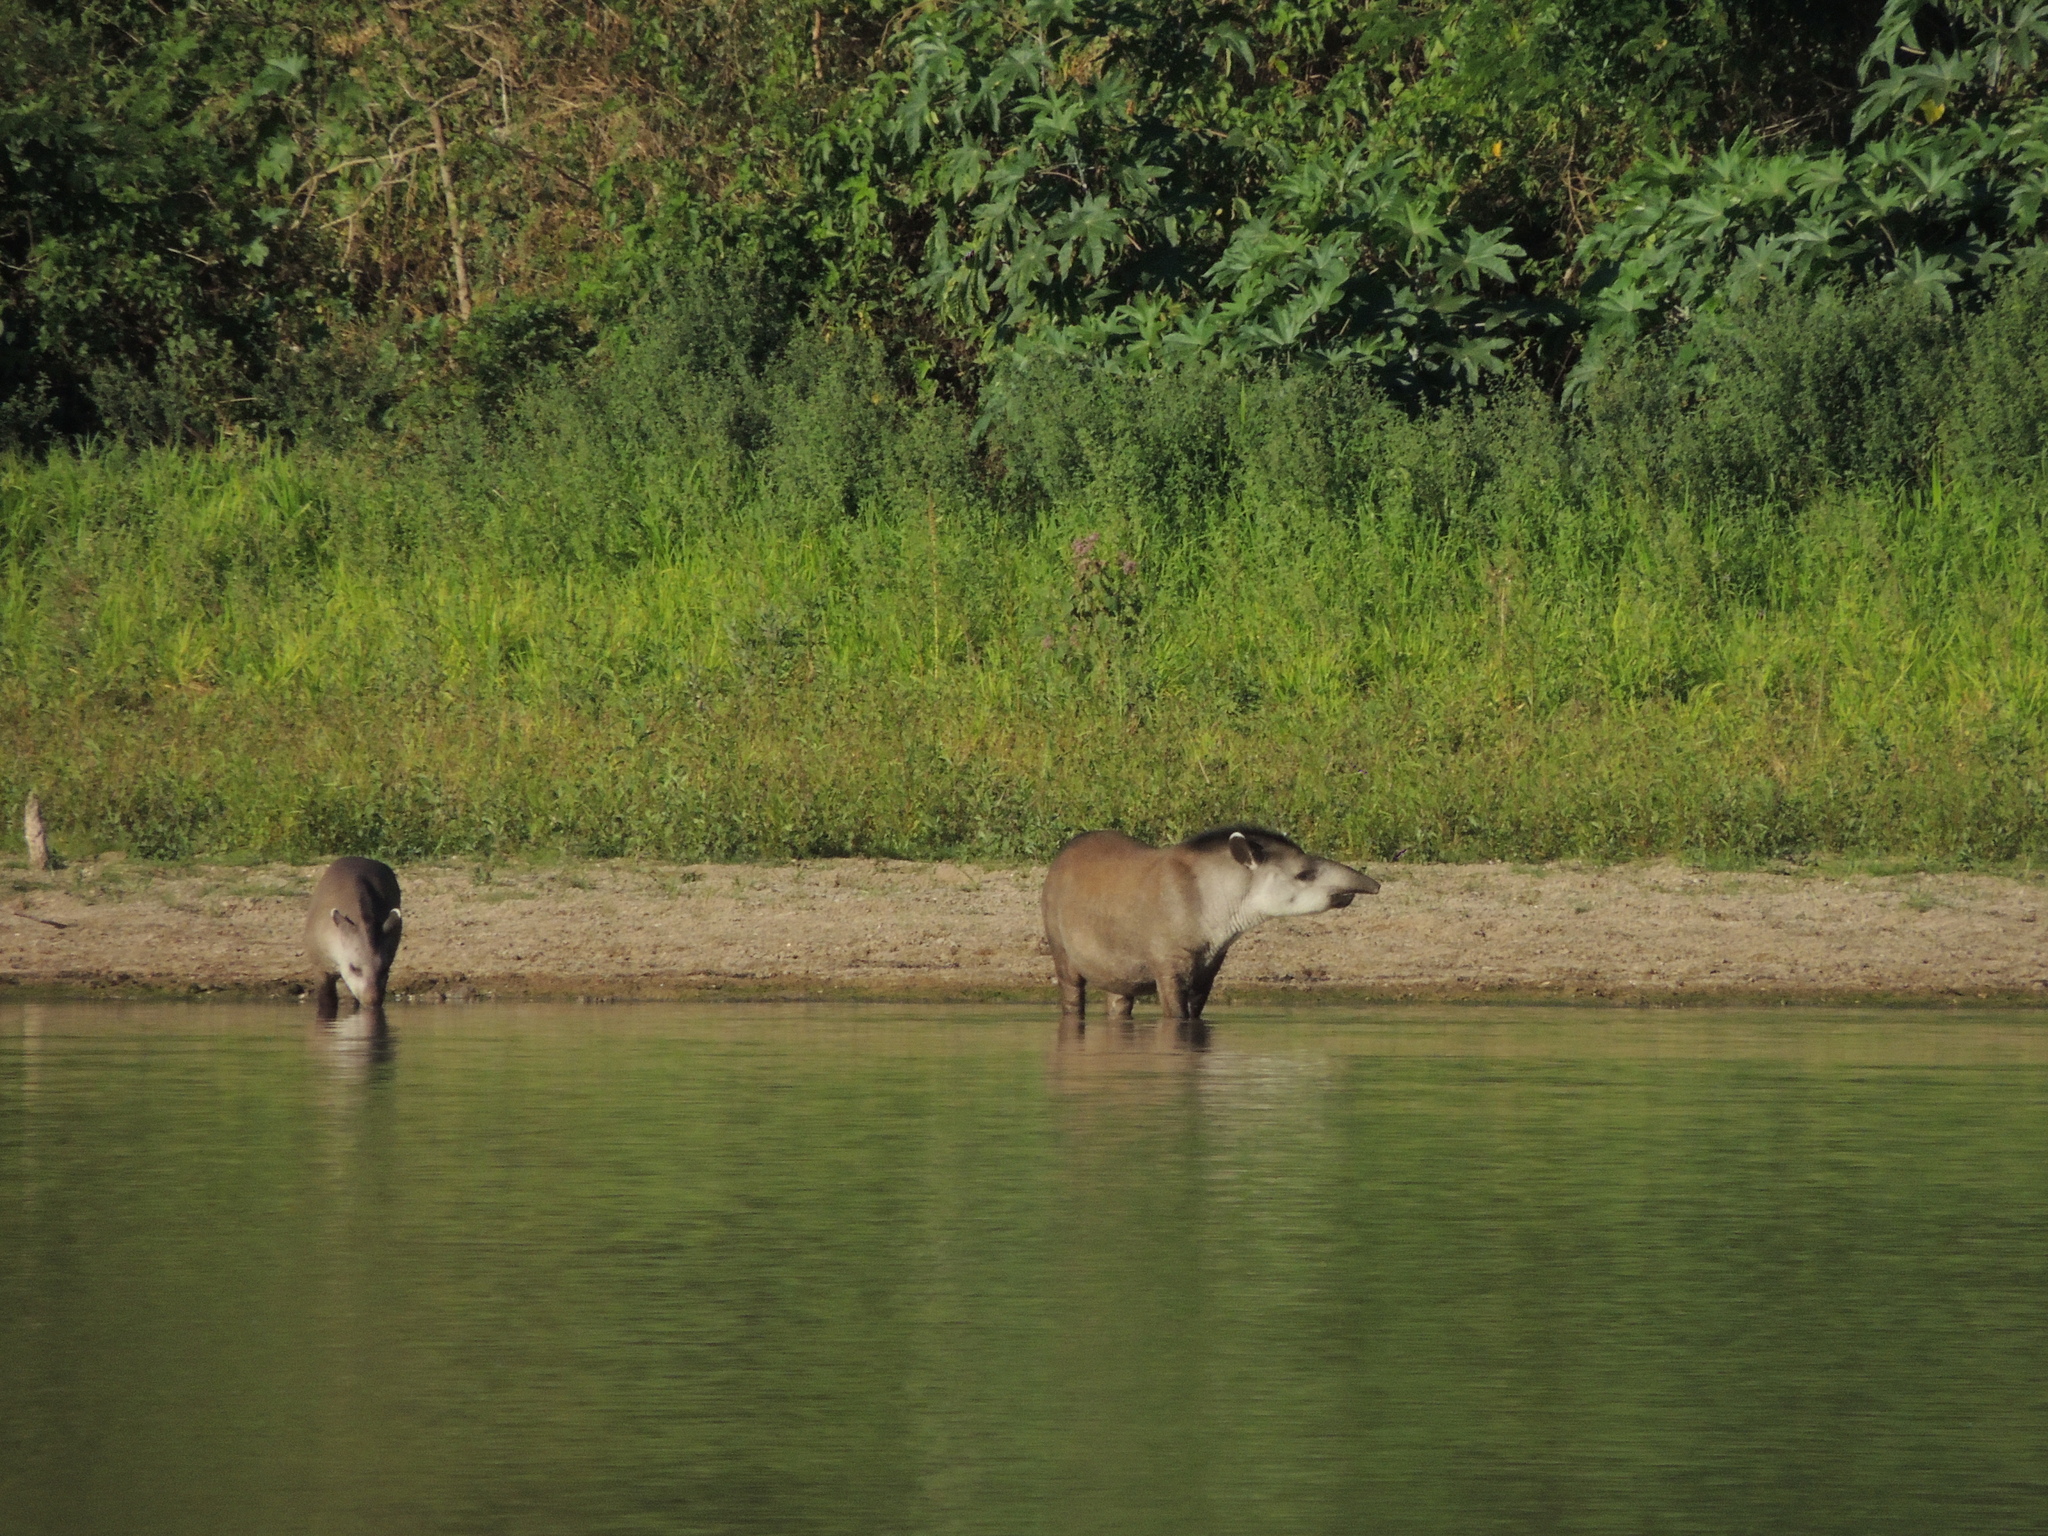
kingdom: Animalia
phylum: Chordata
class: Mammalia
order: Perissodactyla
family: Tapiridae
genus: Tapirus
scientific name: Tapirus terrestris
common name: Brazilian tapir
